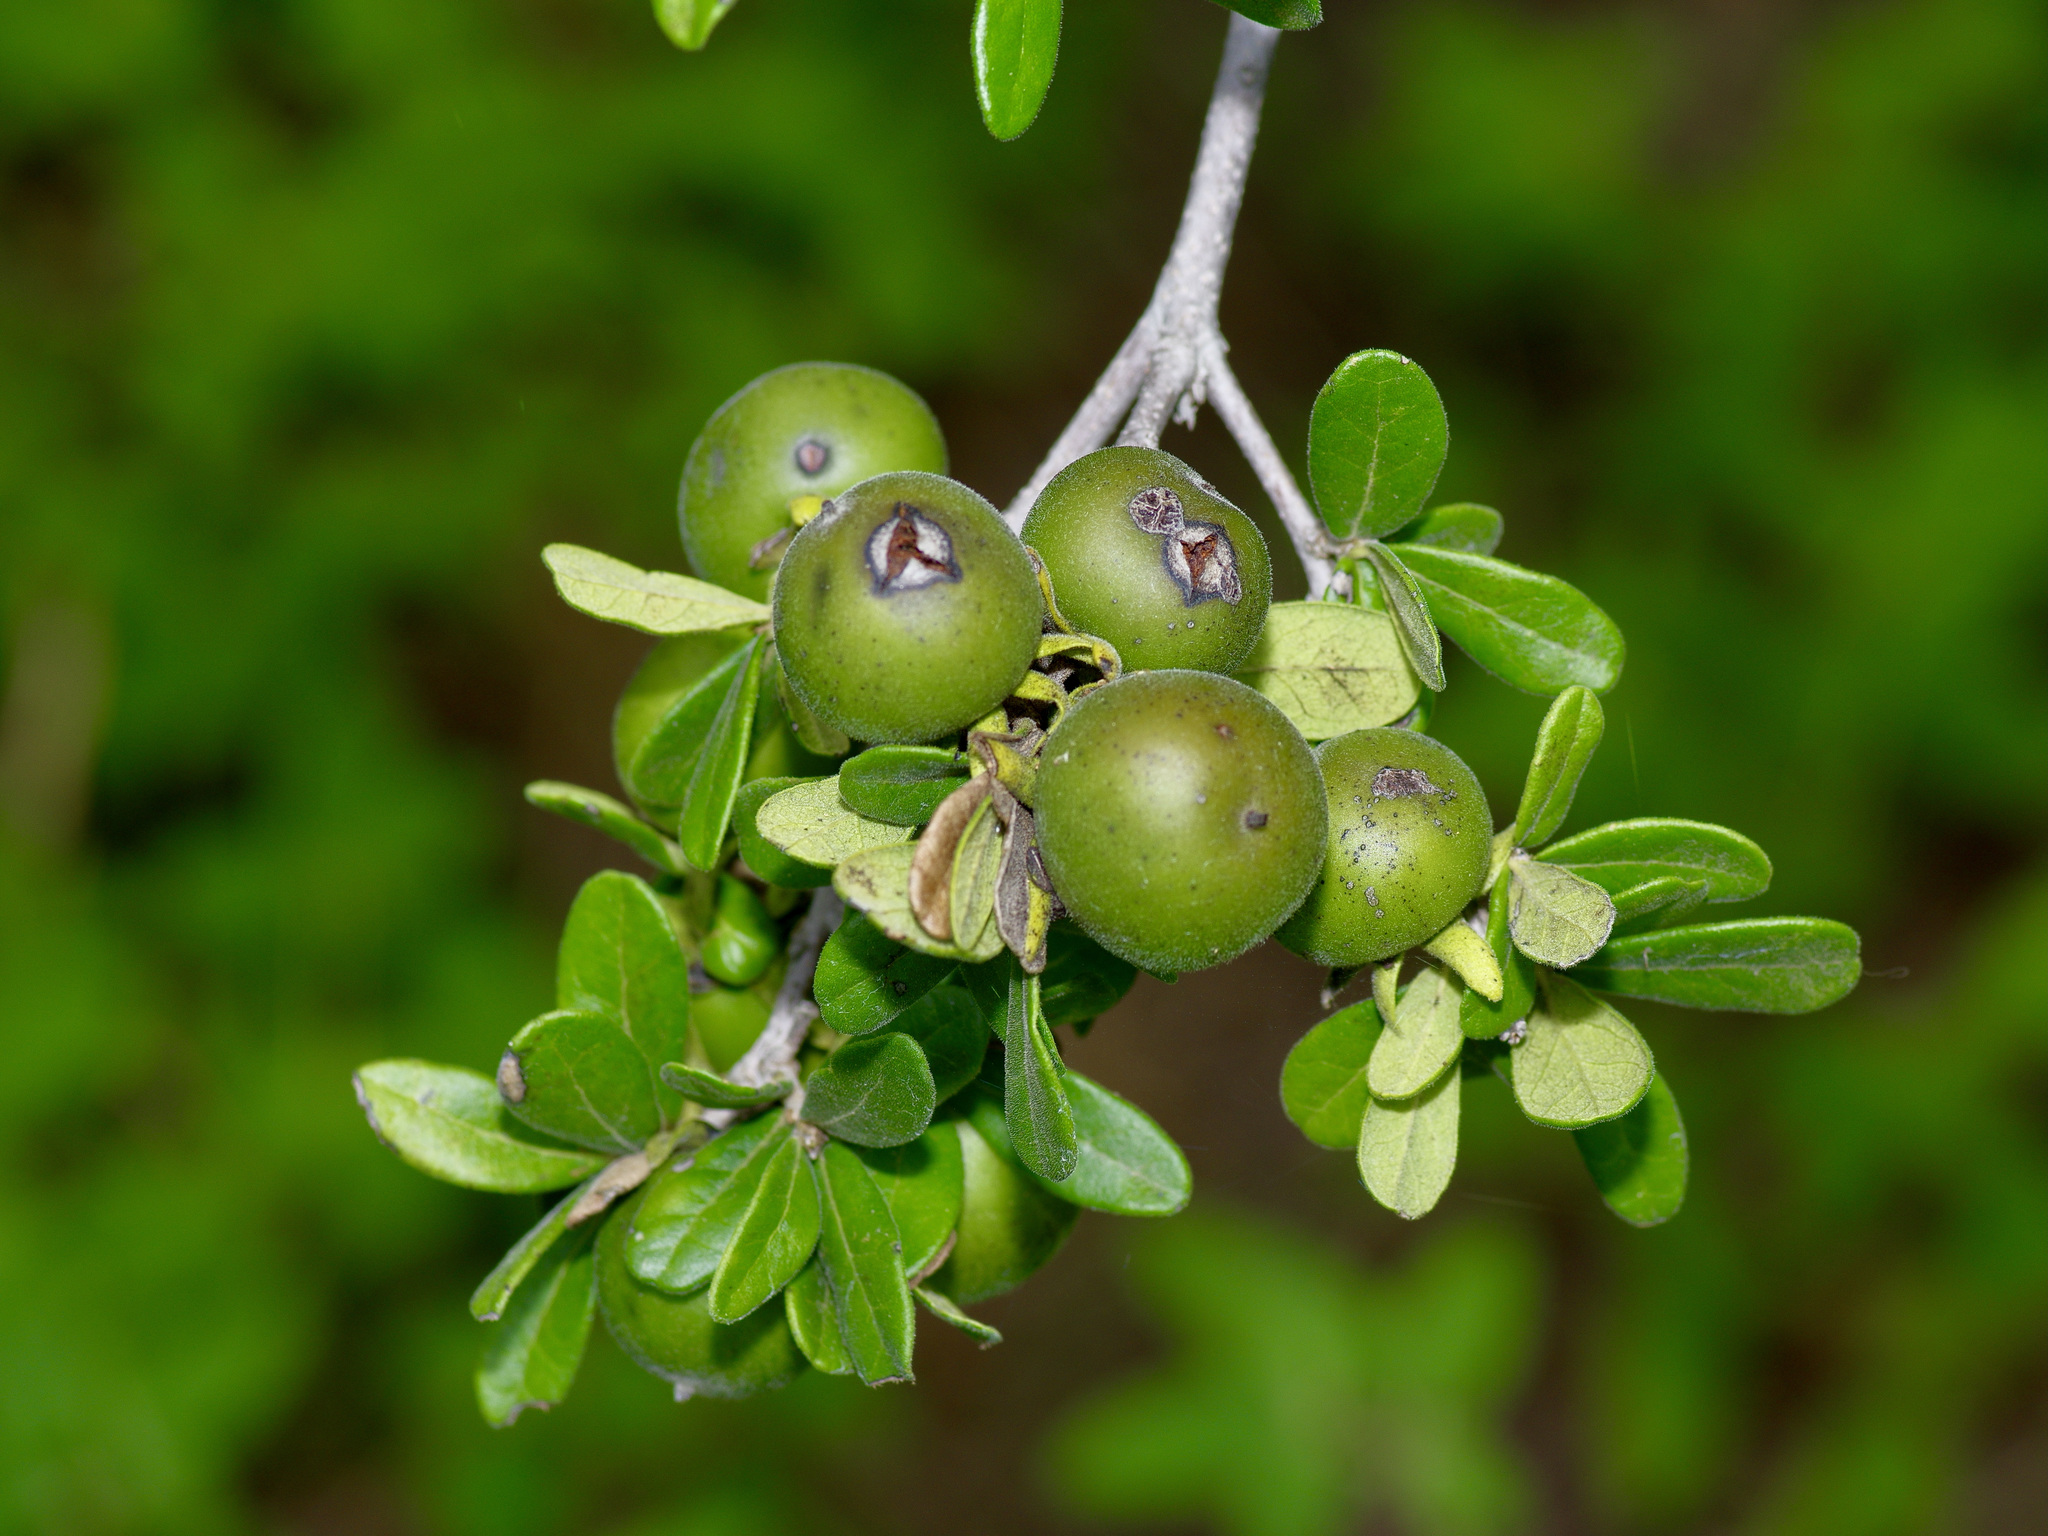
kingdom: Plantae
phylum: Tracheophyta
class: Magnoliopsida
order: Ericales
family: Ebenaceae
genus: Diospyros
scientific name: Diospyros texana
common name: Texas persimmon
